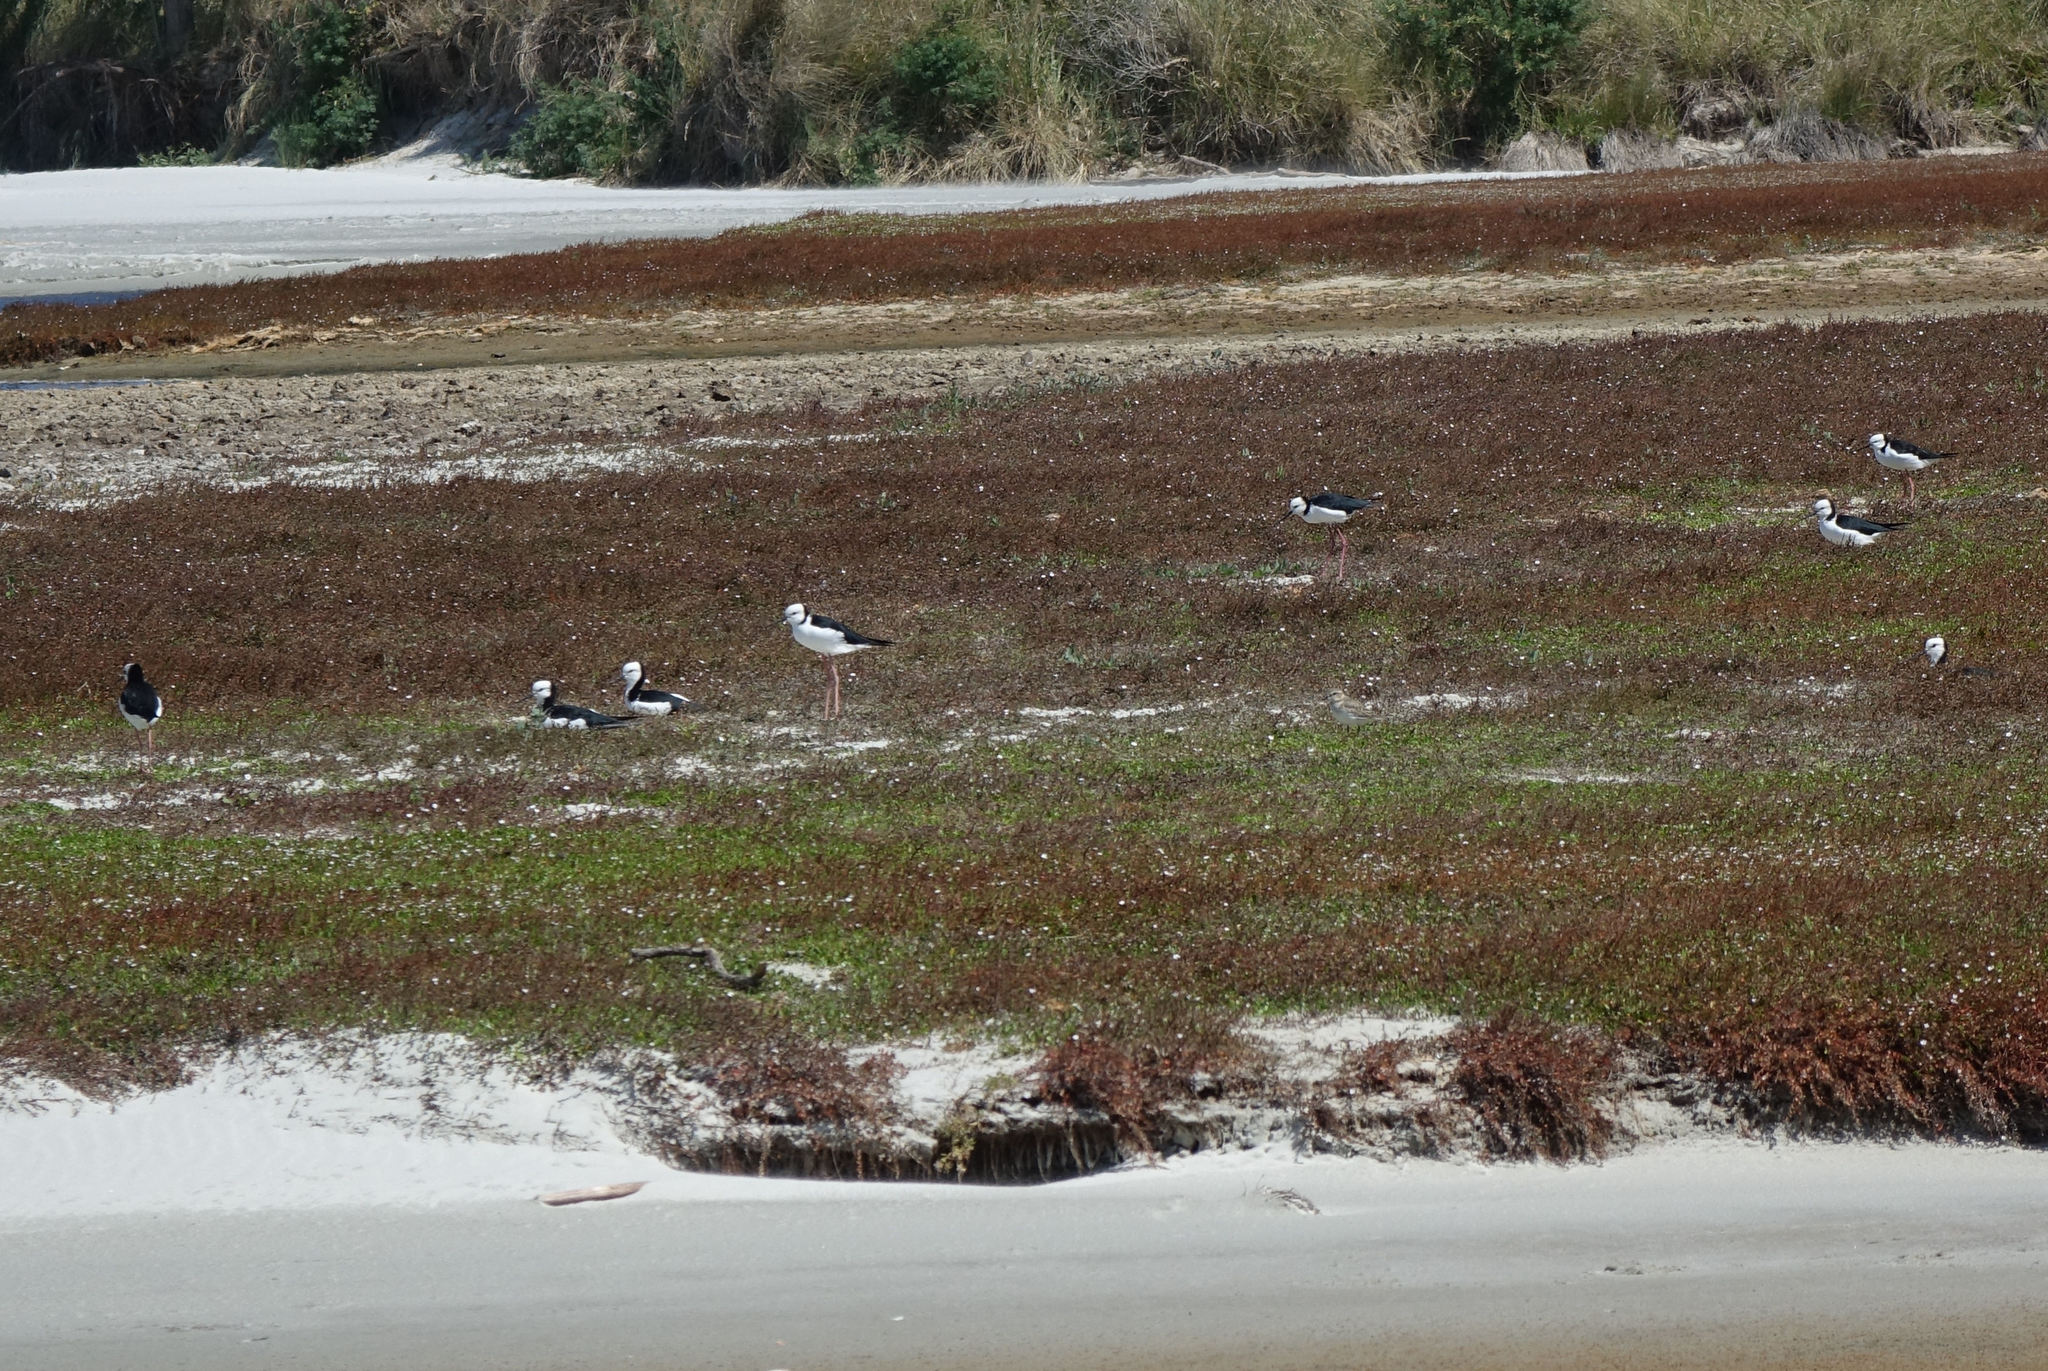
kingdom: Animalia
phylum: Chordata
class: Aves
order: Charadriiformes
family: Recurvirostridae
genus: Himantopus
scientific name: Himantopus leucocephalus
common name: White-headed stilt
